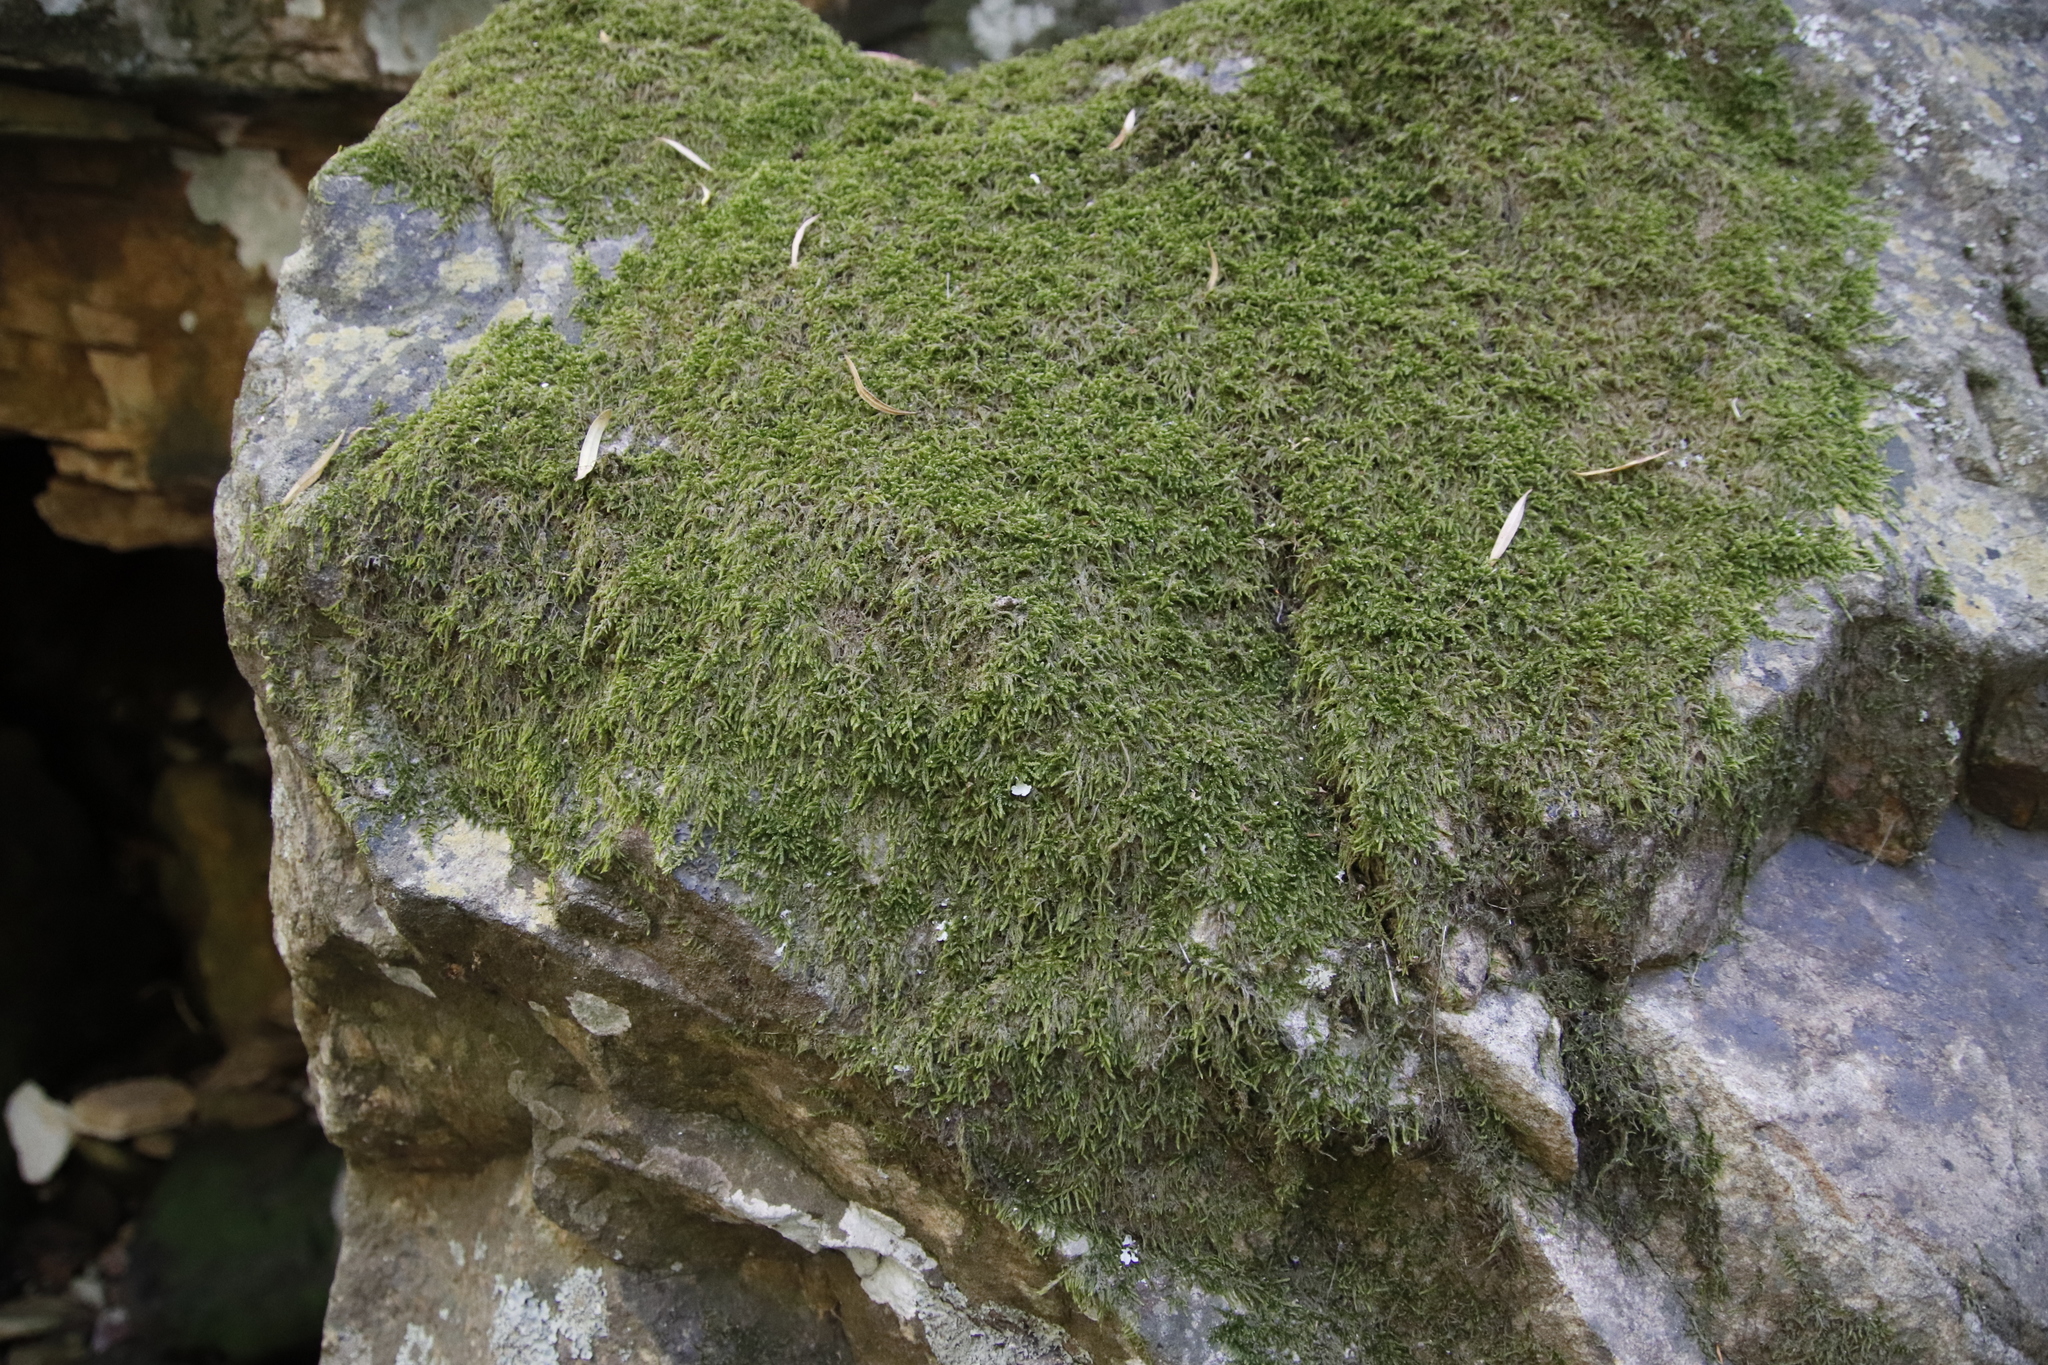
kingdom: Plantae
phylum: Bryophyta
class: Bryopsida
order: Hypnales
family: Hypnaceae
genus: Hypnum
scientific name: Hypnum cupressiforme
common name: Cypress-leaved plait-moss
